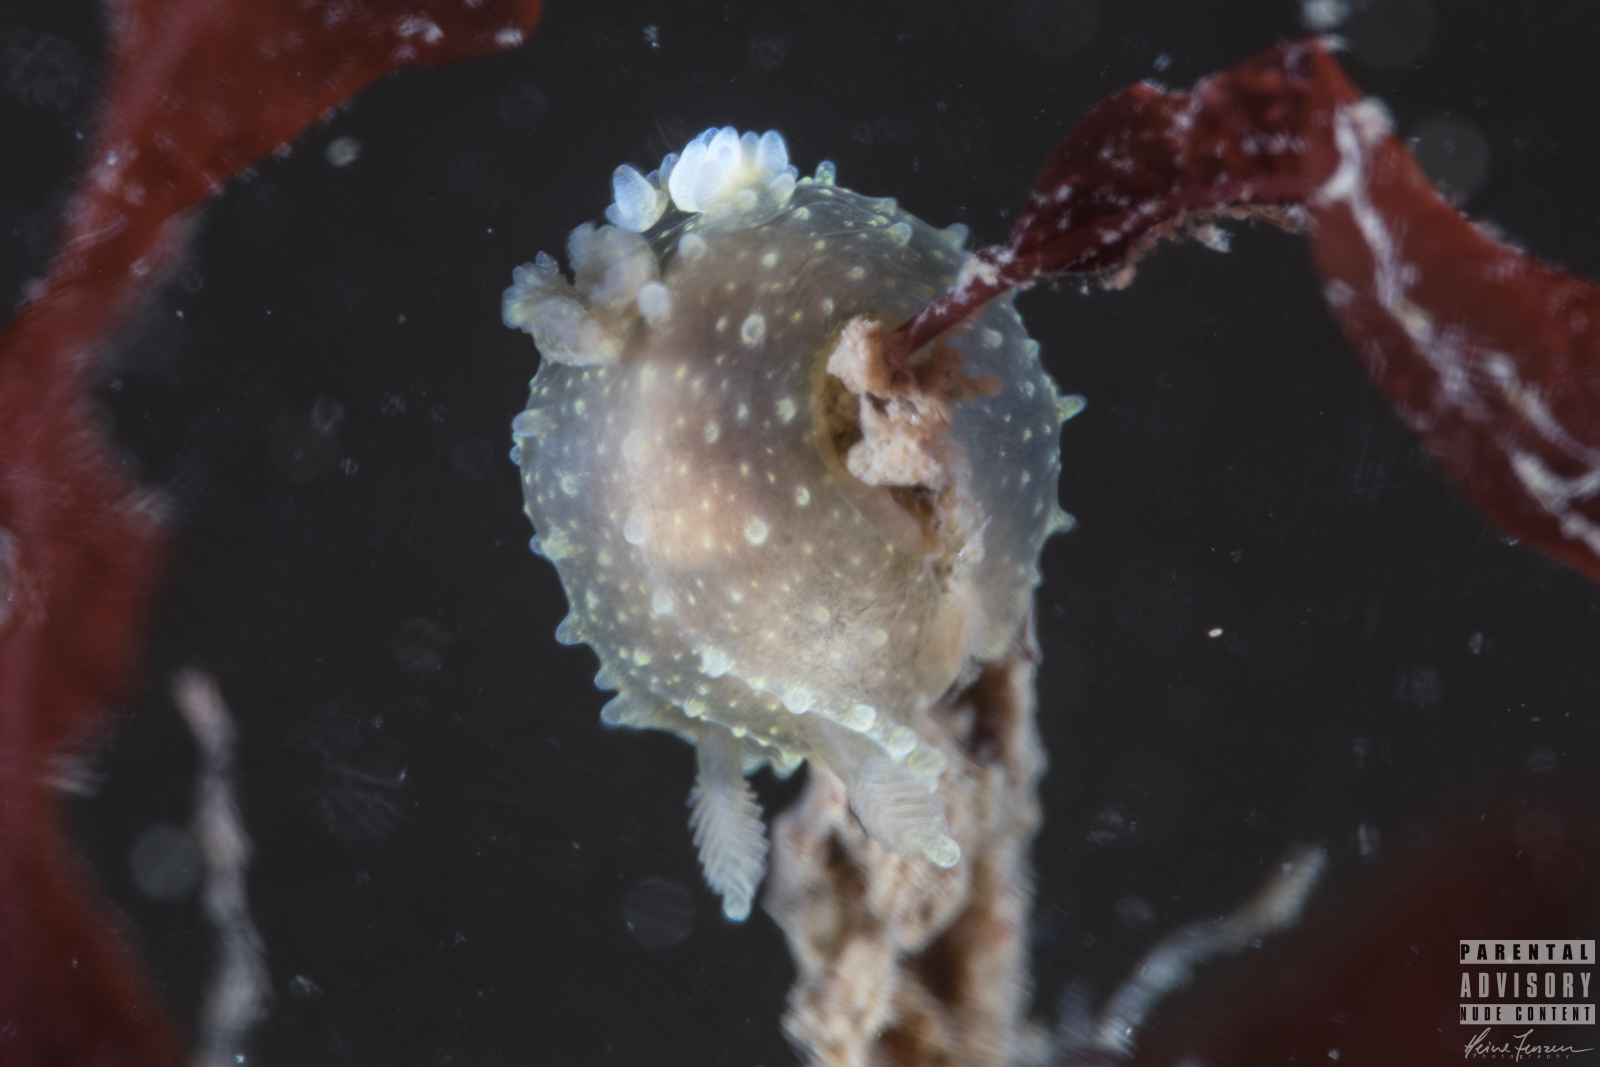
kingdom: Animalia
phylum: Mollusca
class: Gastropoda
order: Nudibranchia
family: Polyceridae
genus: Palio
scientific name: Palio dubia
